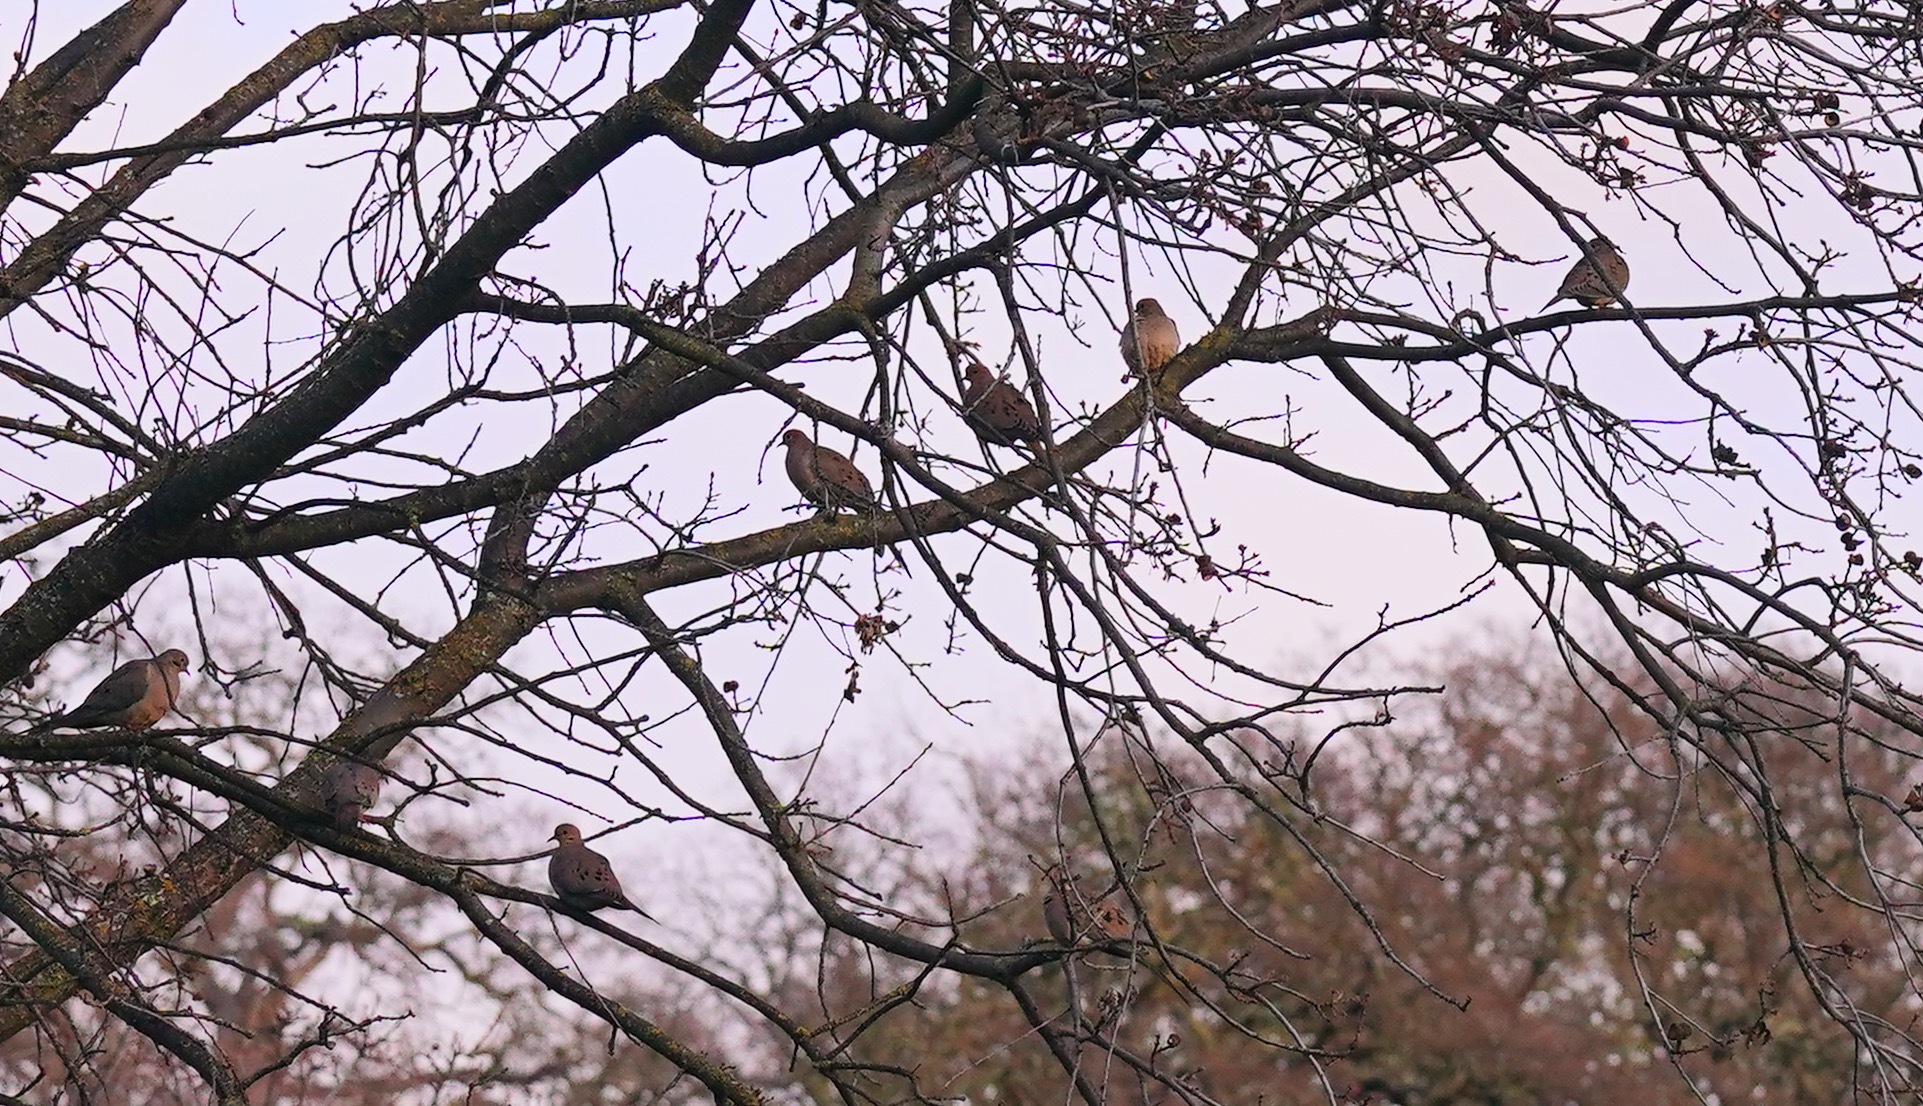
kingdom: Animalia
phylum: Chordata
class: Aves
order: Columbiformes
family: Columbidae
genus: Zenaida
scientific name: Zenaida macroura
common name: Mourning dove
